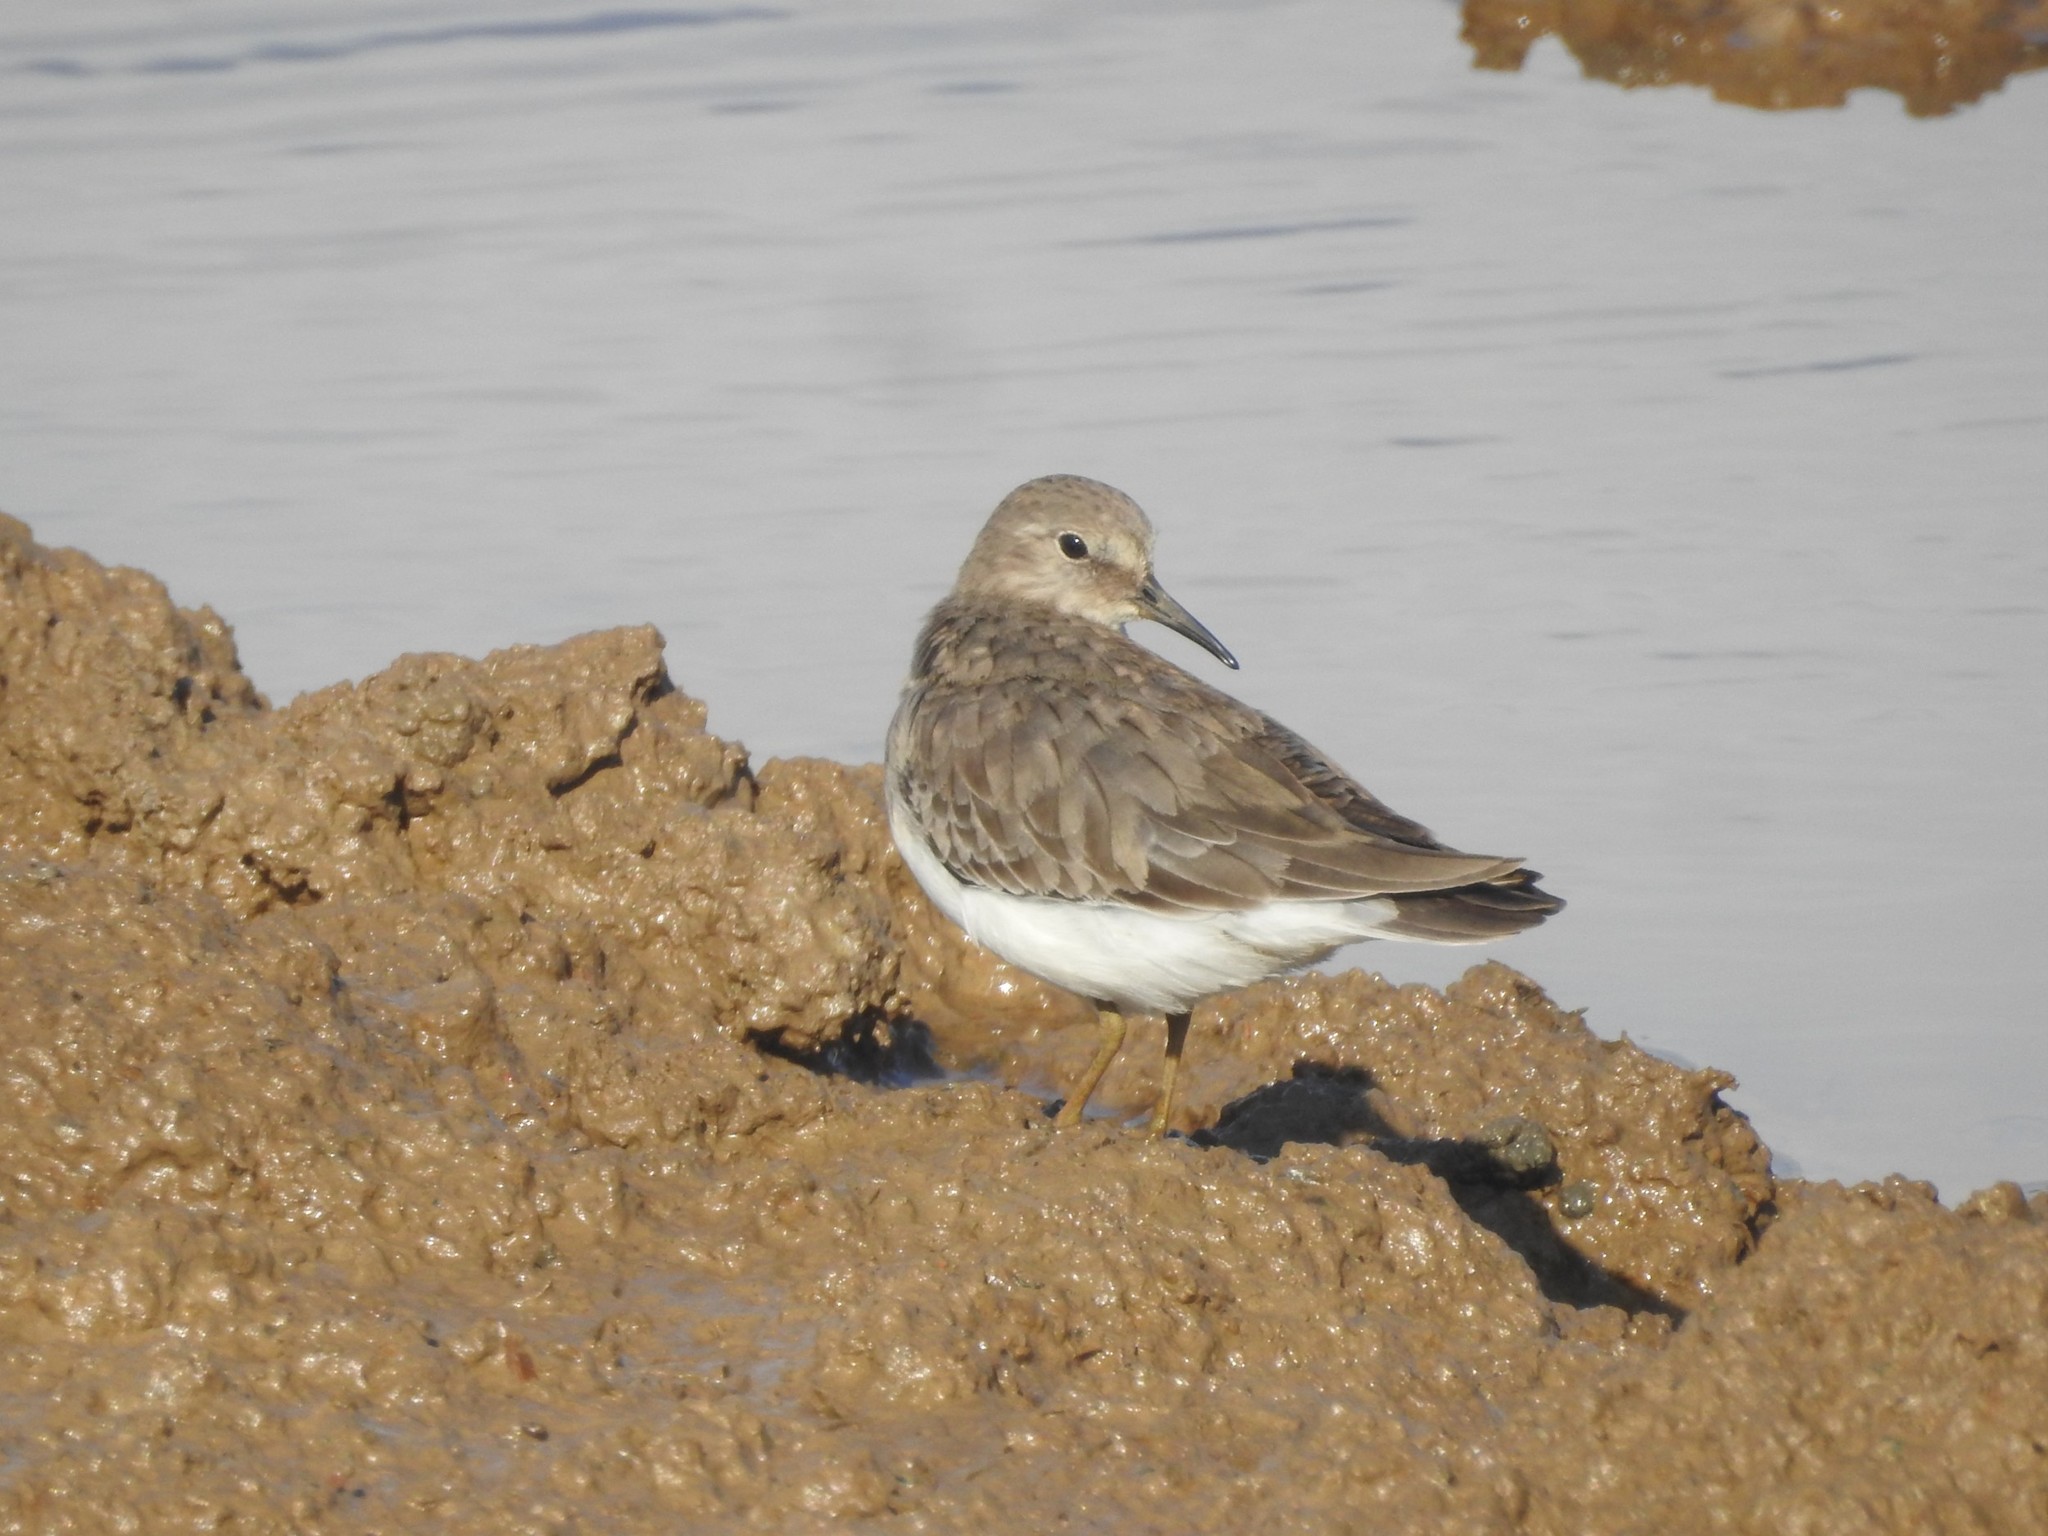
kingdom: Animalia
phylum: Chordata
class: Aves
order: Charadriiformes
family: Scolopacidae
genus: Calidris
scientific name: Calidris temminckii
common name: Temminck's stint
